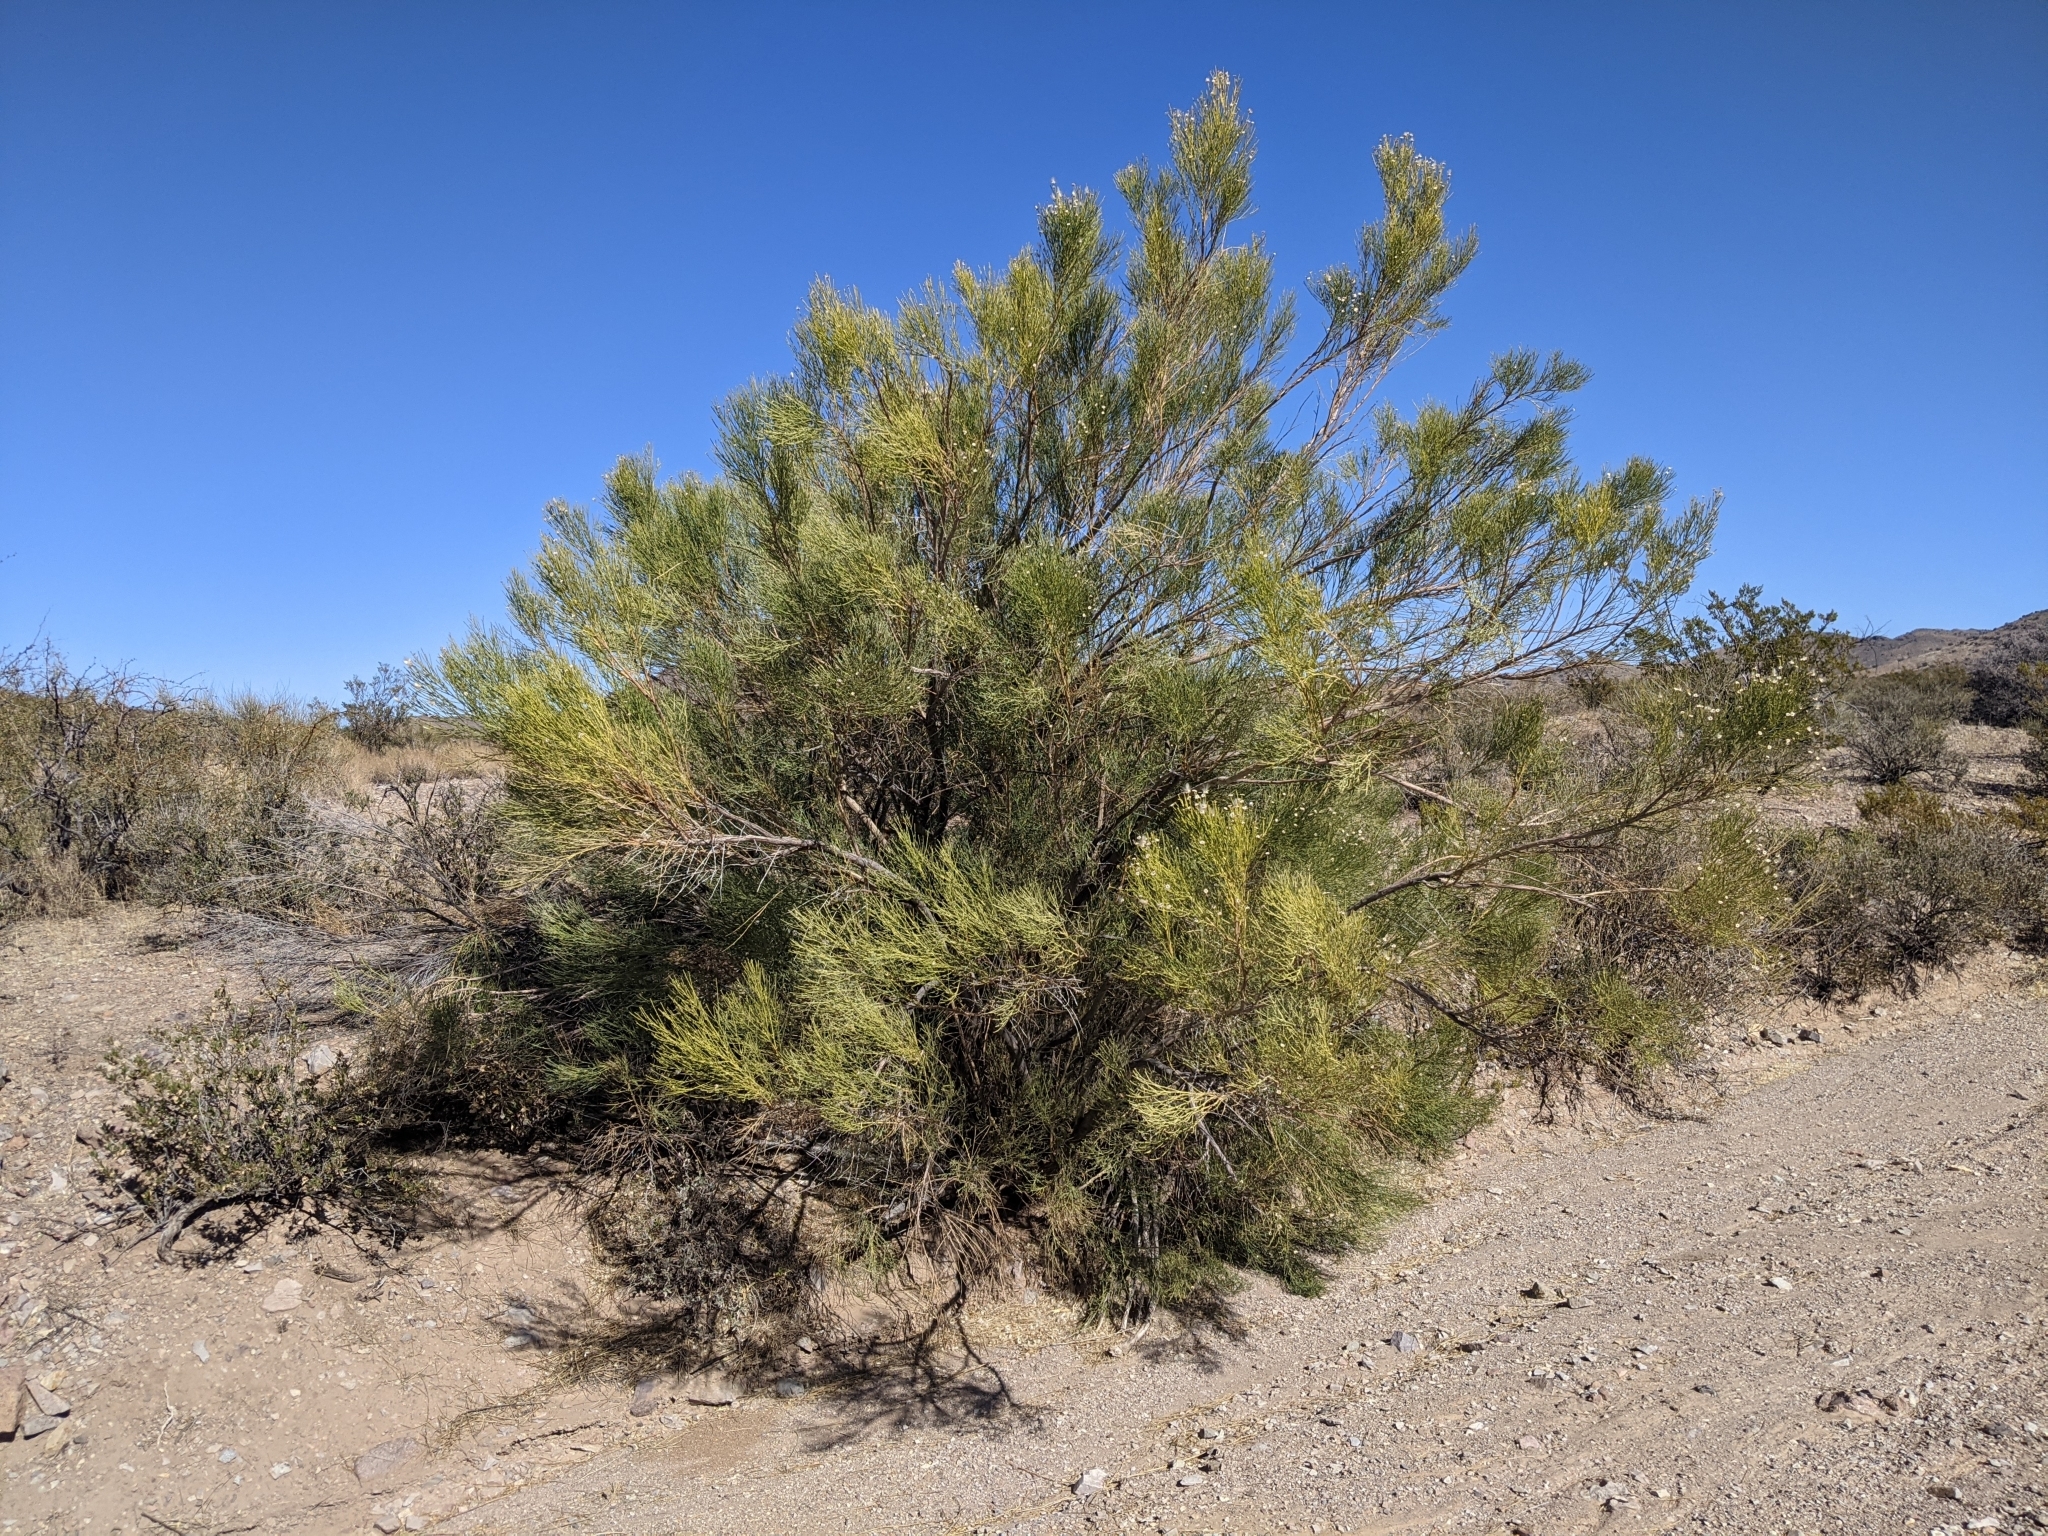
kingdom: Plantae
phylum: Tracheophyta
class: Magnoliopsida
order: Asterales
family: Asteraceae
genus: Baccharis
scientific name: Baccharis sarothroides
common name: Desert-broom
